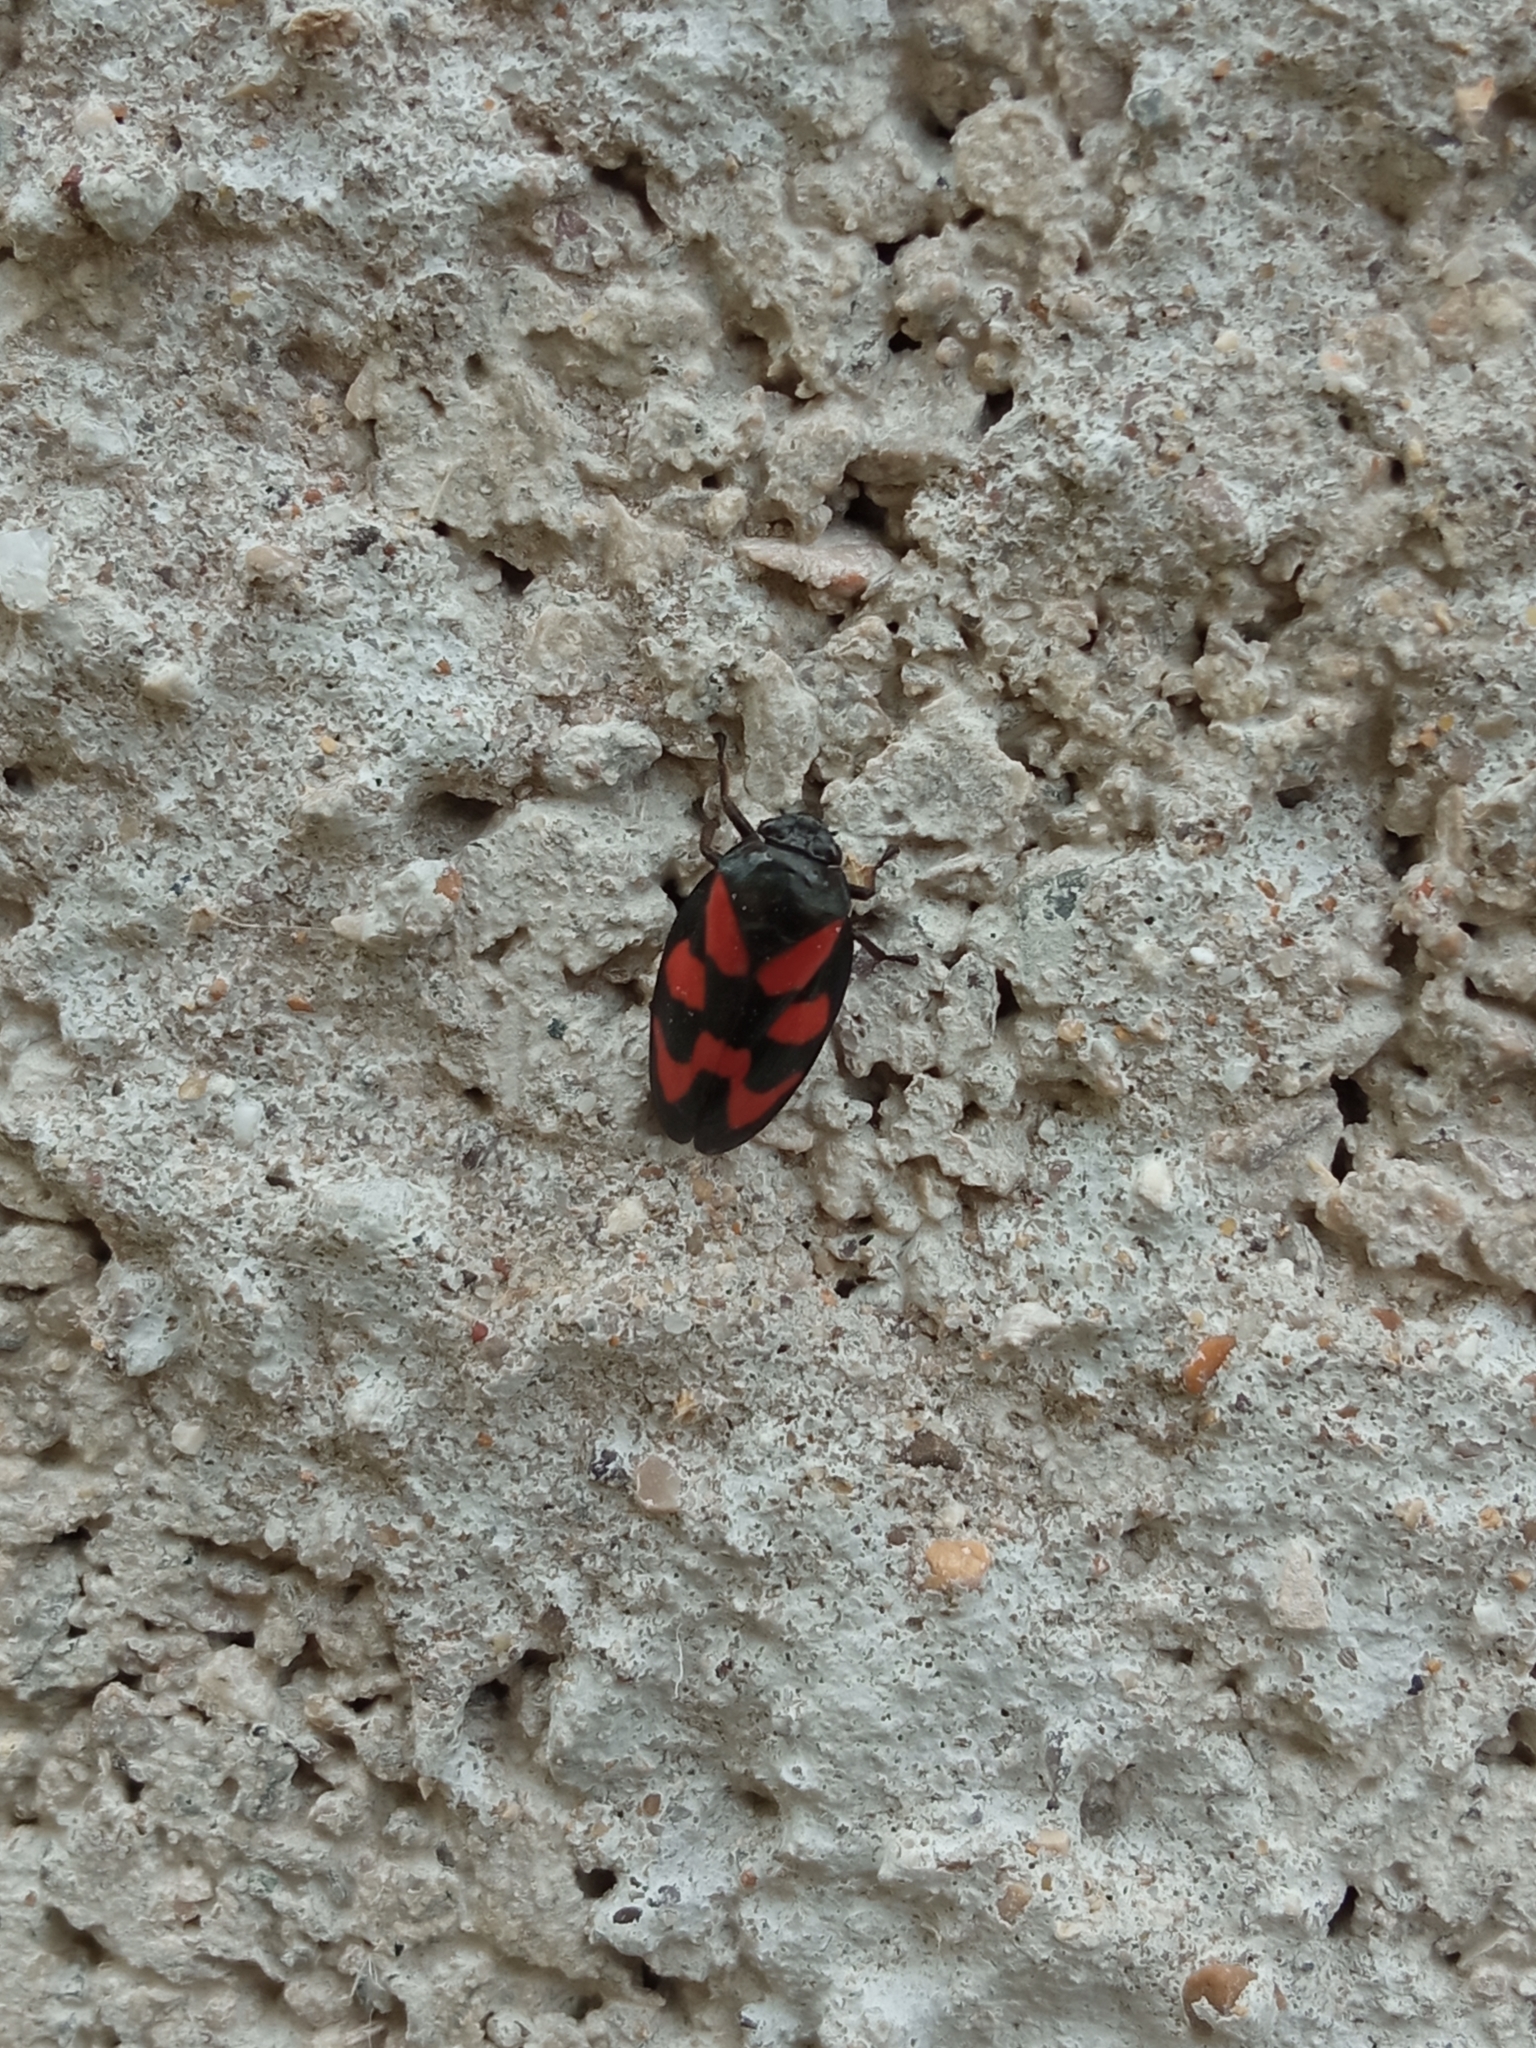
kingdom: Animalia
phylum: Arthropoda
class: Insecta
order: Hemiptera
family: Cercopidae
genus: Cercopis
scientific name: Cercopis vulnerata
